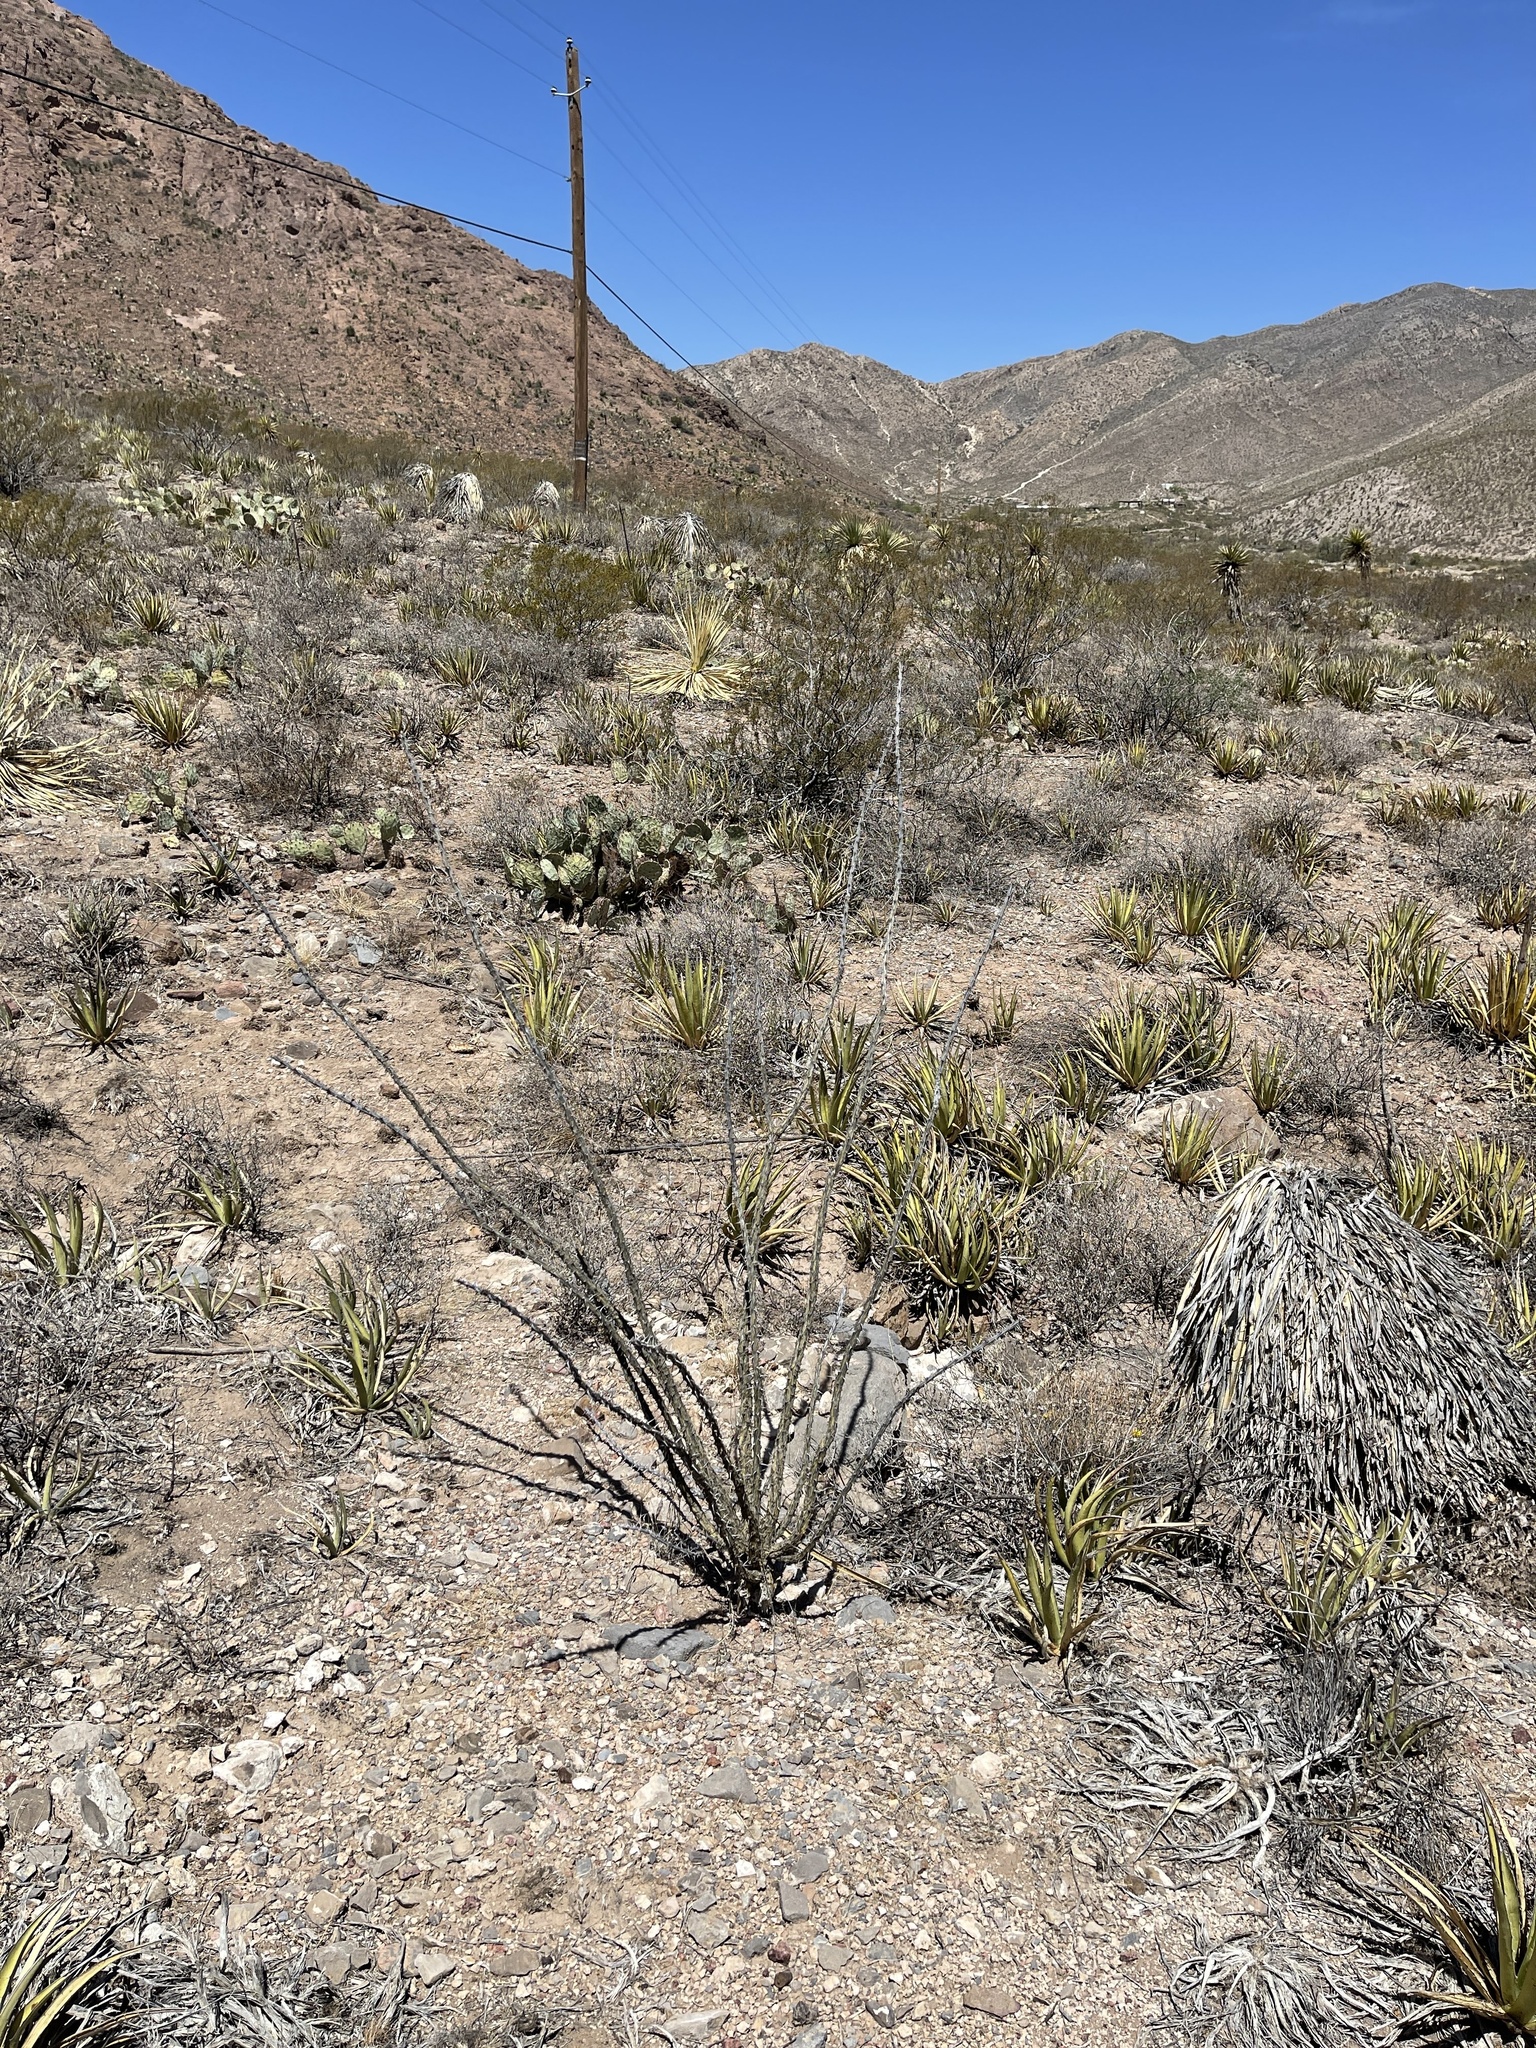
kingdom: Plantae
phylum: Tracheophyta
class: Magnoliopsida
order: Ericales
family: Fouquieriaceae
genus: Fouquieria
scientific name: Fouquieria splendens
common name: Vine-cactus
